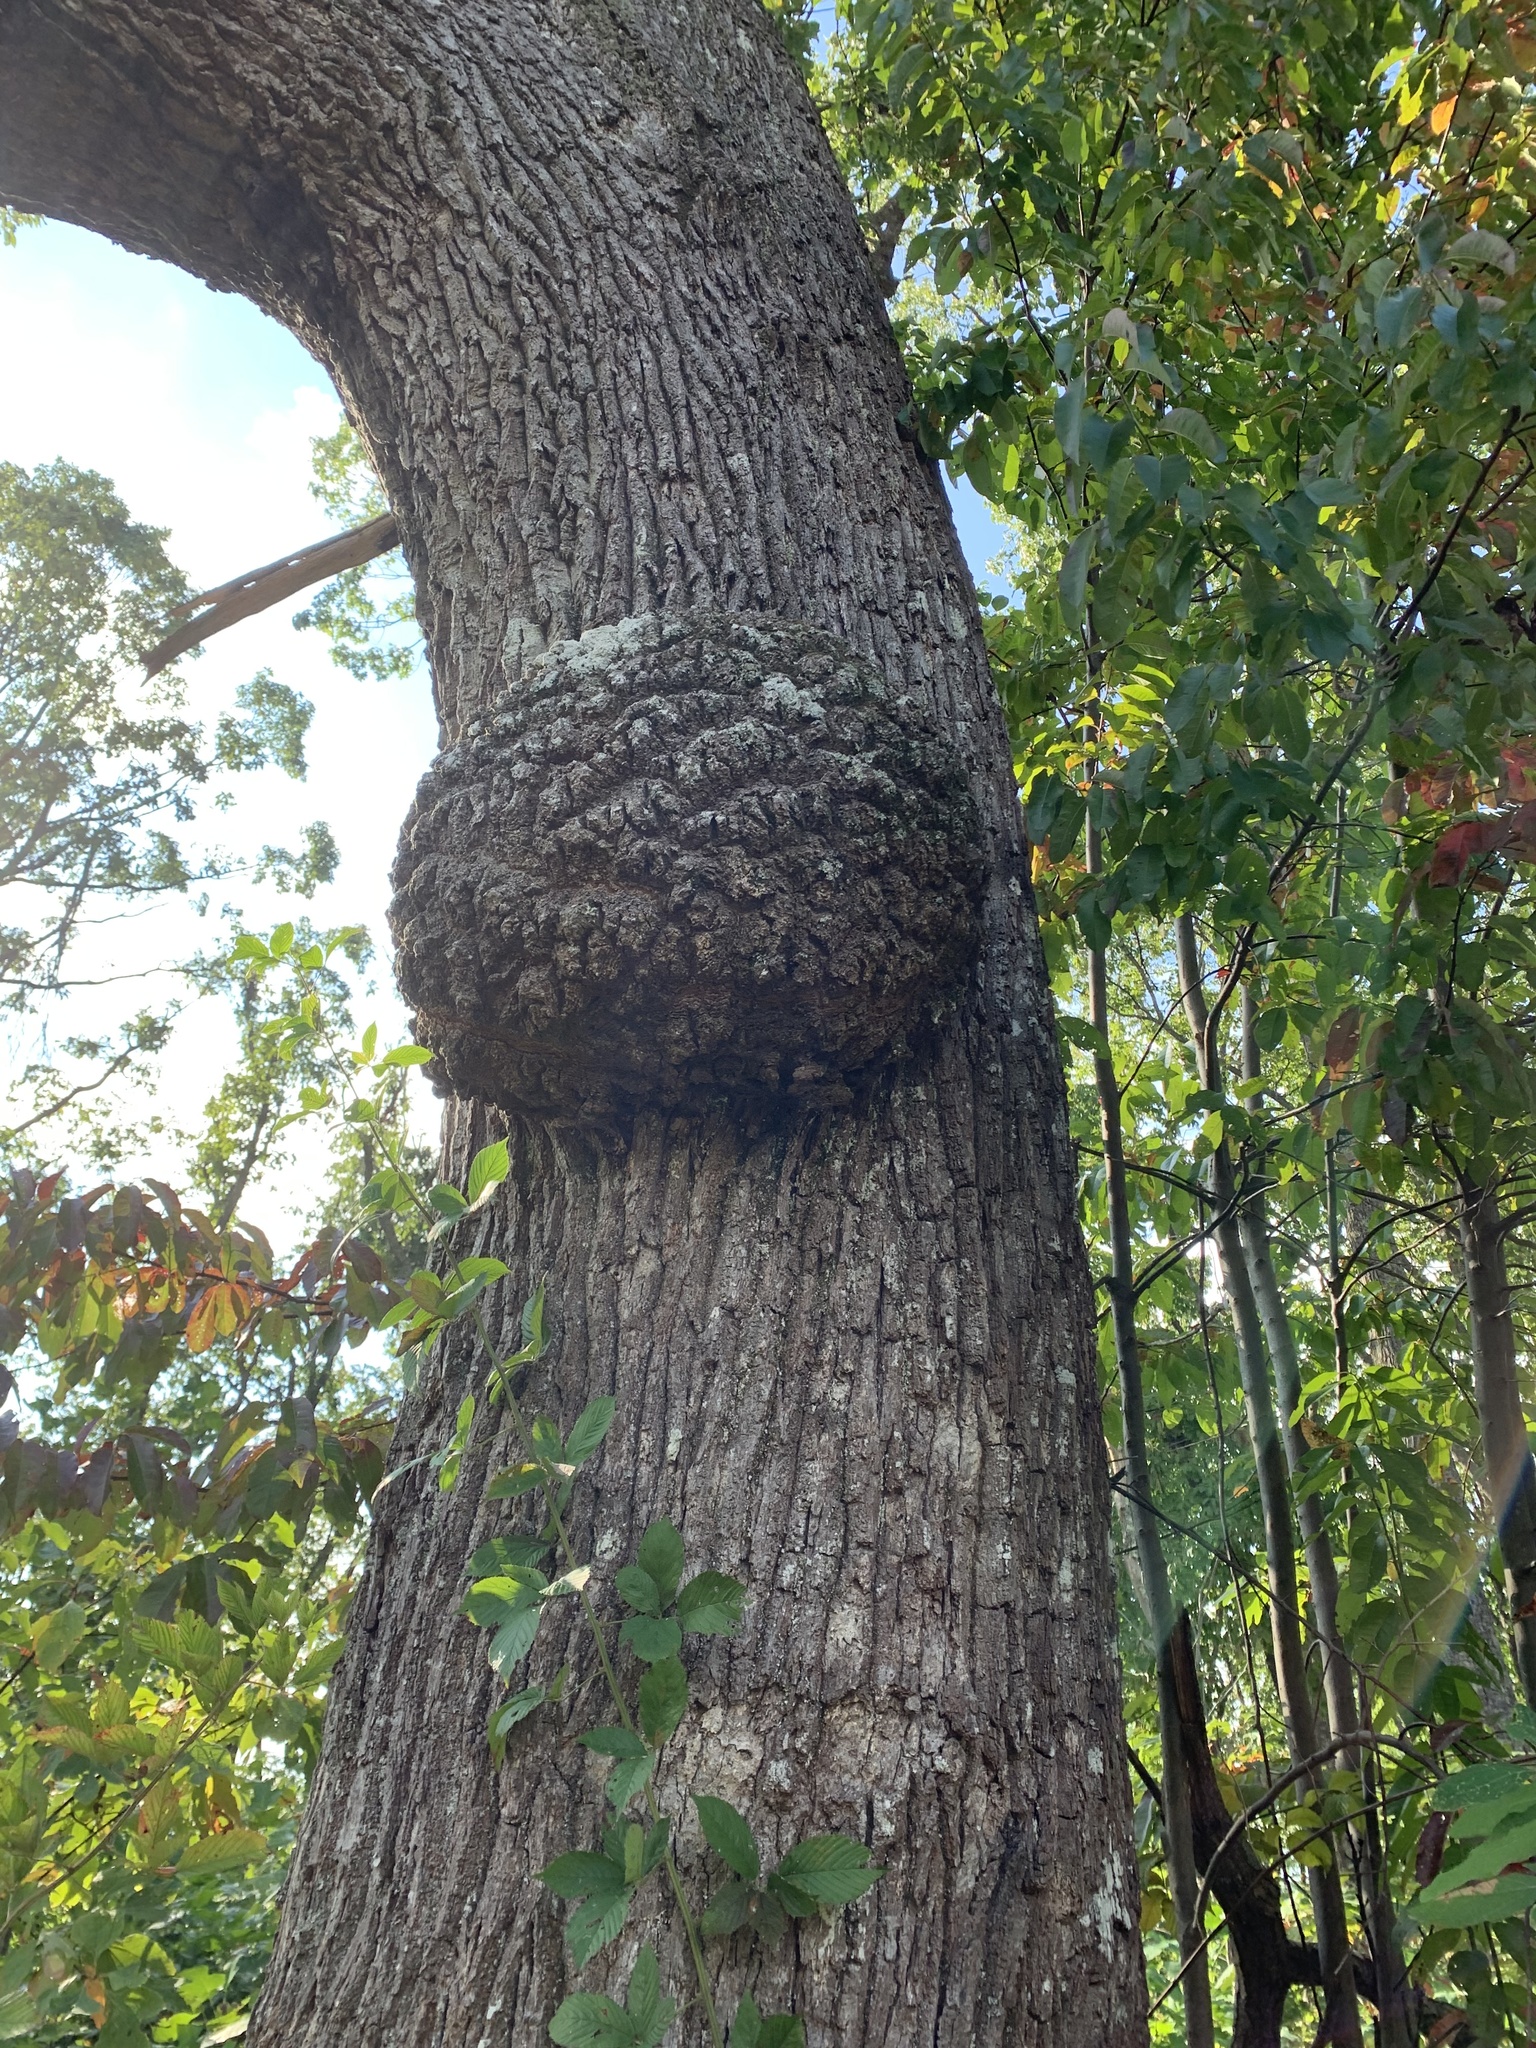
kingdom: Bacteria
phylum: Proteobacteria
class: Alphaproteobacteria
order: Rhizobiales
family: Rhizobiaceae
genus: Rhizobium
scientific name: Rhizobium Agrobacterium radiobacter
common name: Bacterial crown gall
